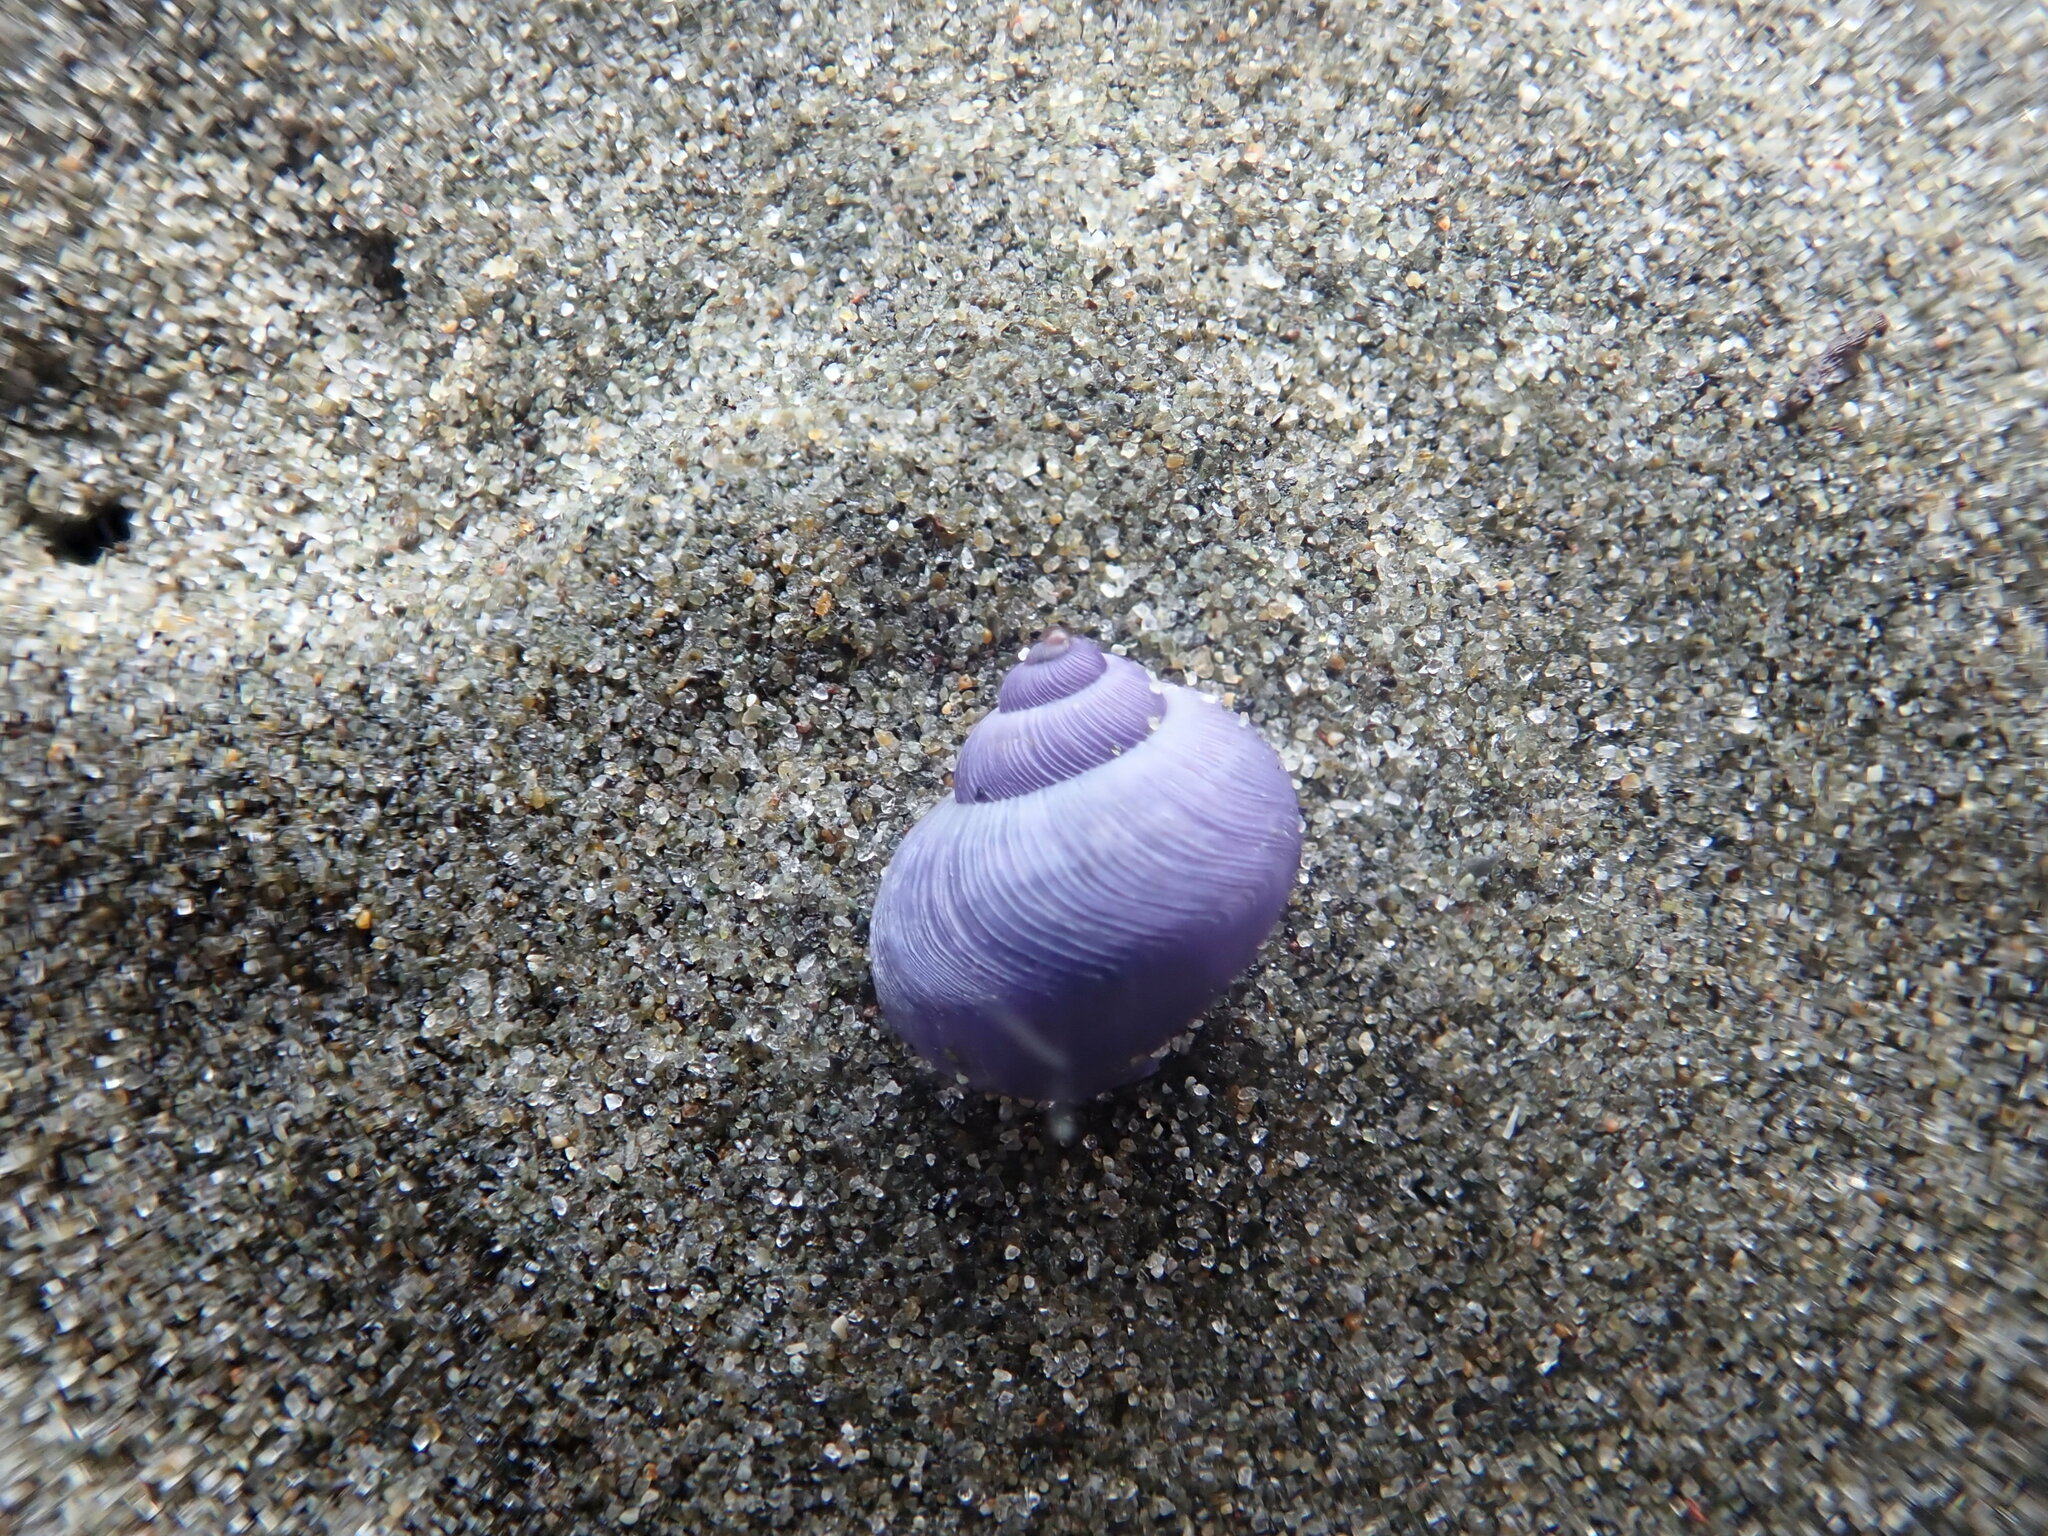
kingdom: Animalia
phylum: Mollusca
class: Gastropoda
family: Epitoniidae
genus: Janthina
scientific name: Janthina exigua
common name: Dwarf janthina
